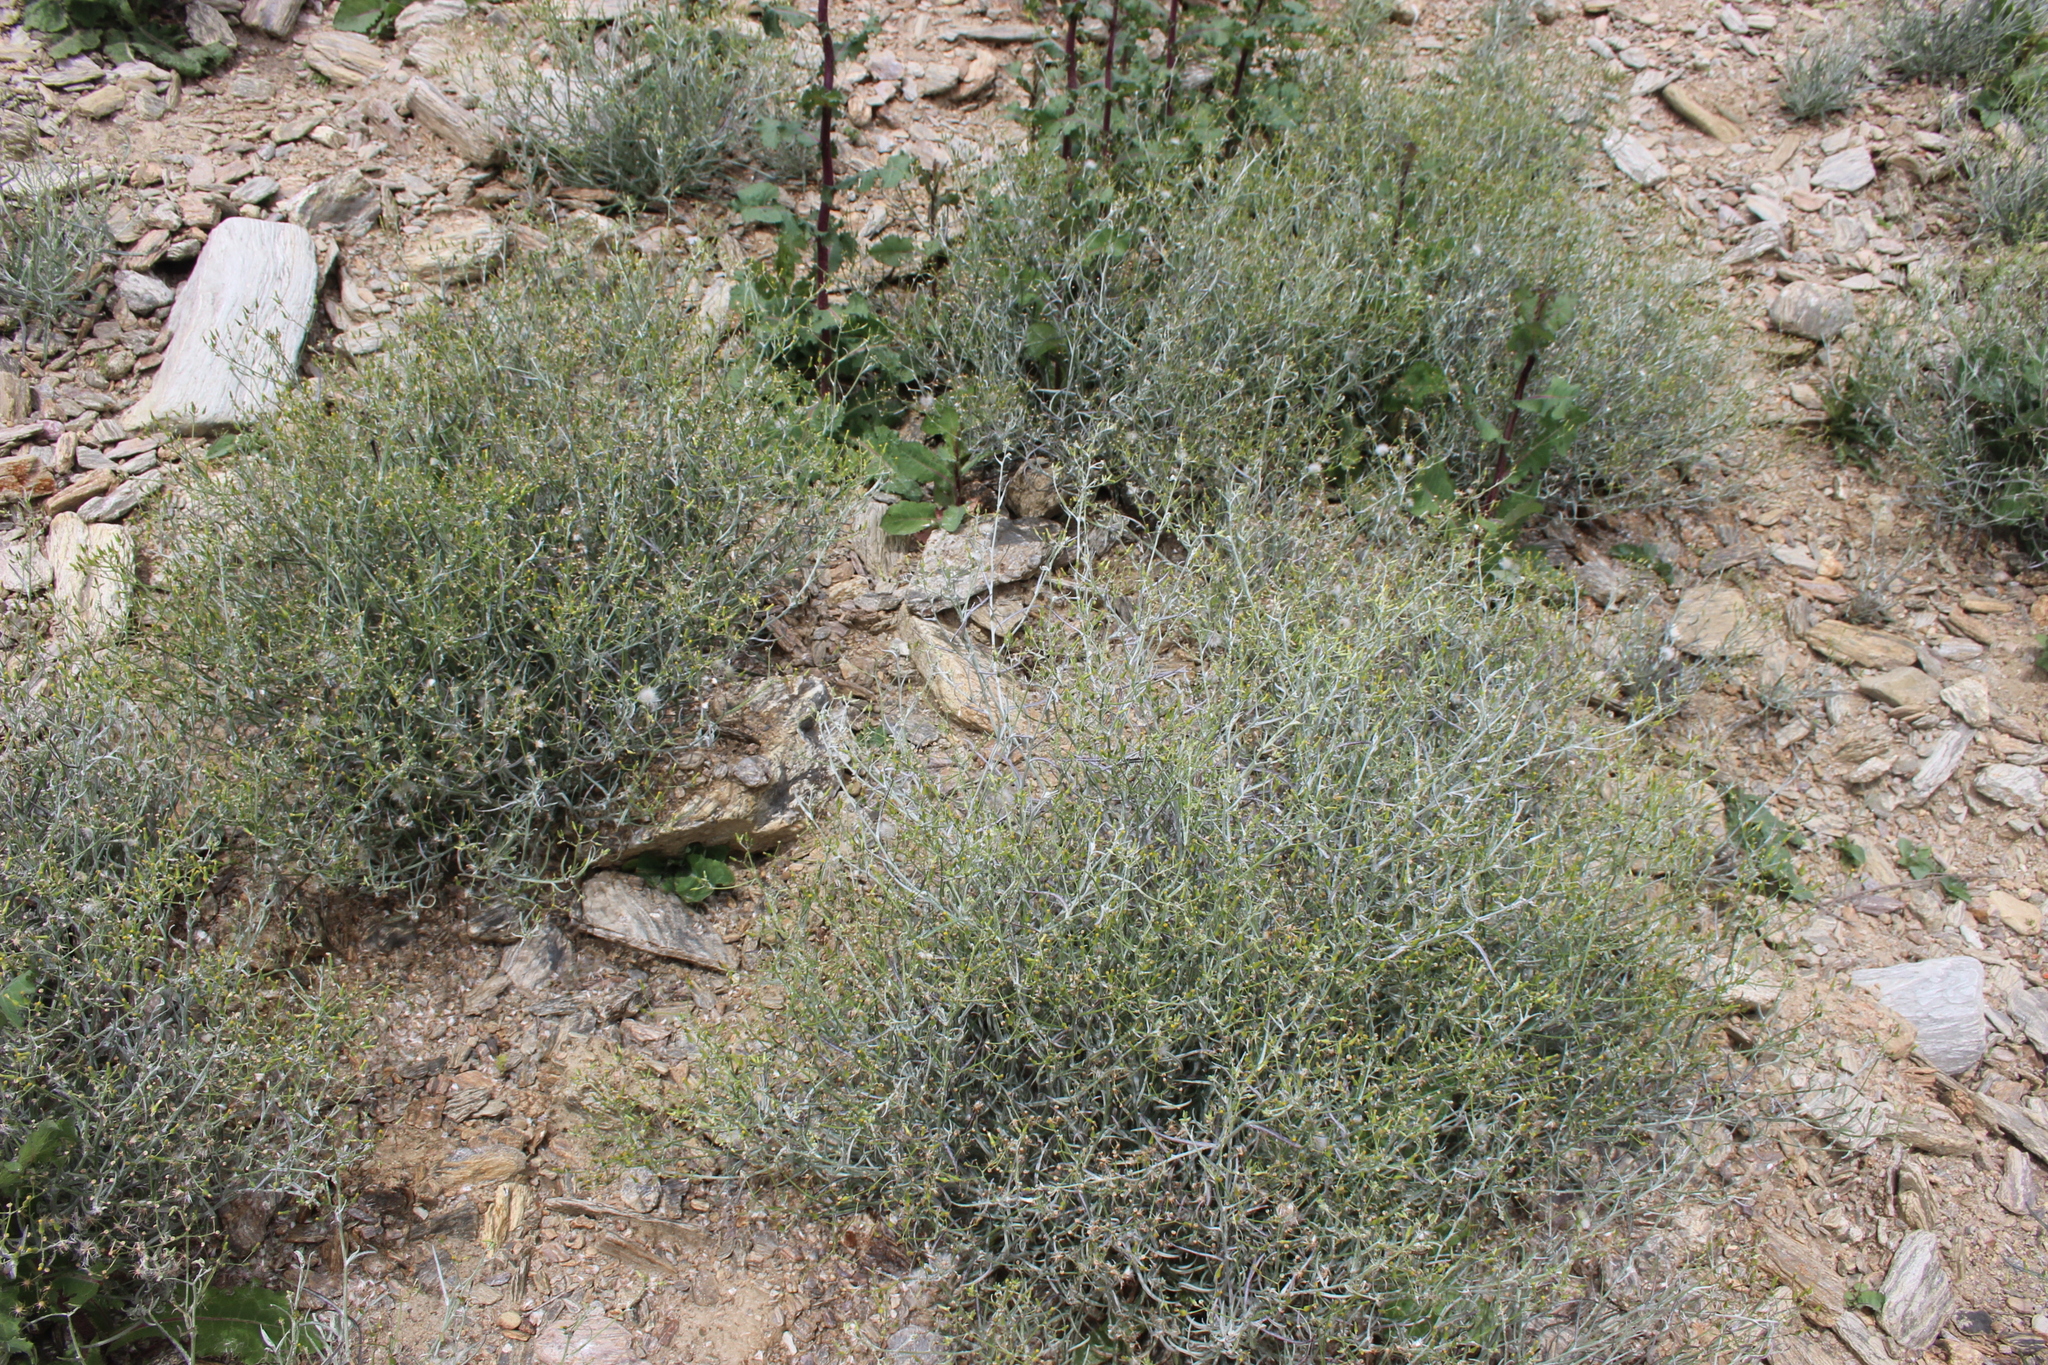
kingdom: Plantae
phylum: Tracheophyta
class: Magnoliopsida
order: Asterales
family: Asteraceae
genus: Senecio
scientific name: Senecio quadridentatus
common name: Cotton fireweed
